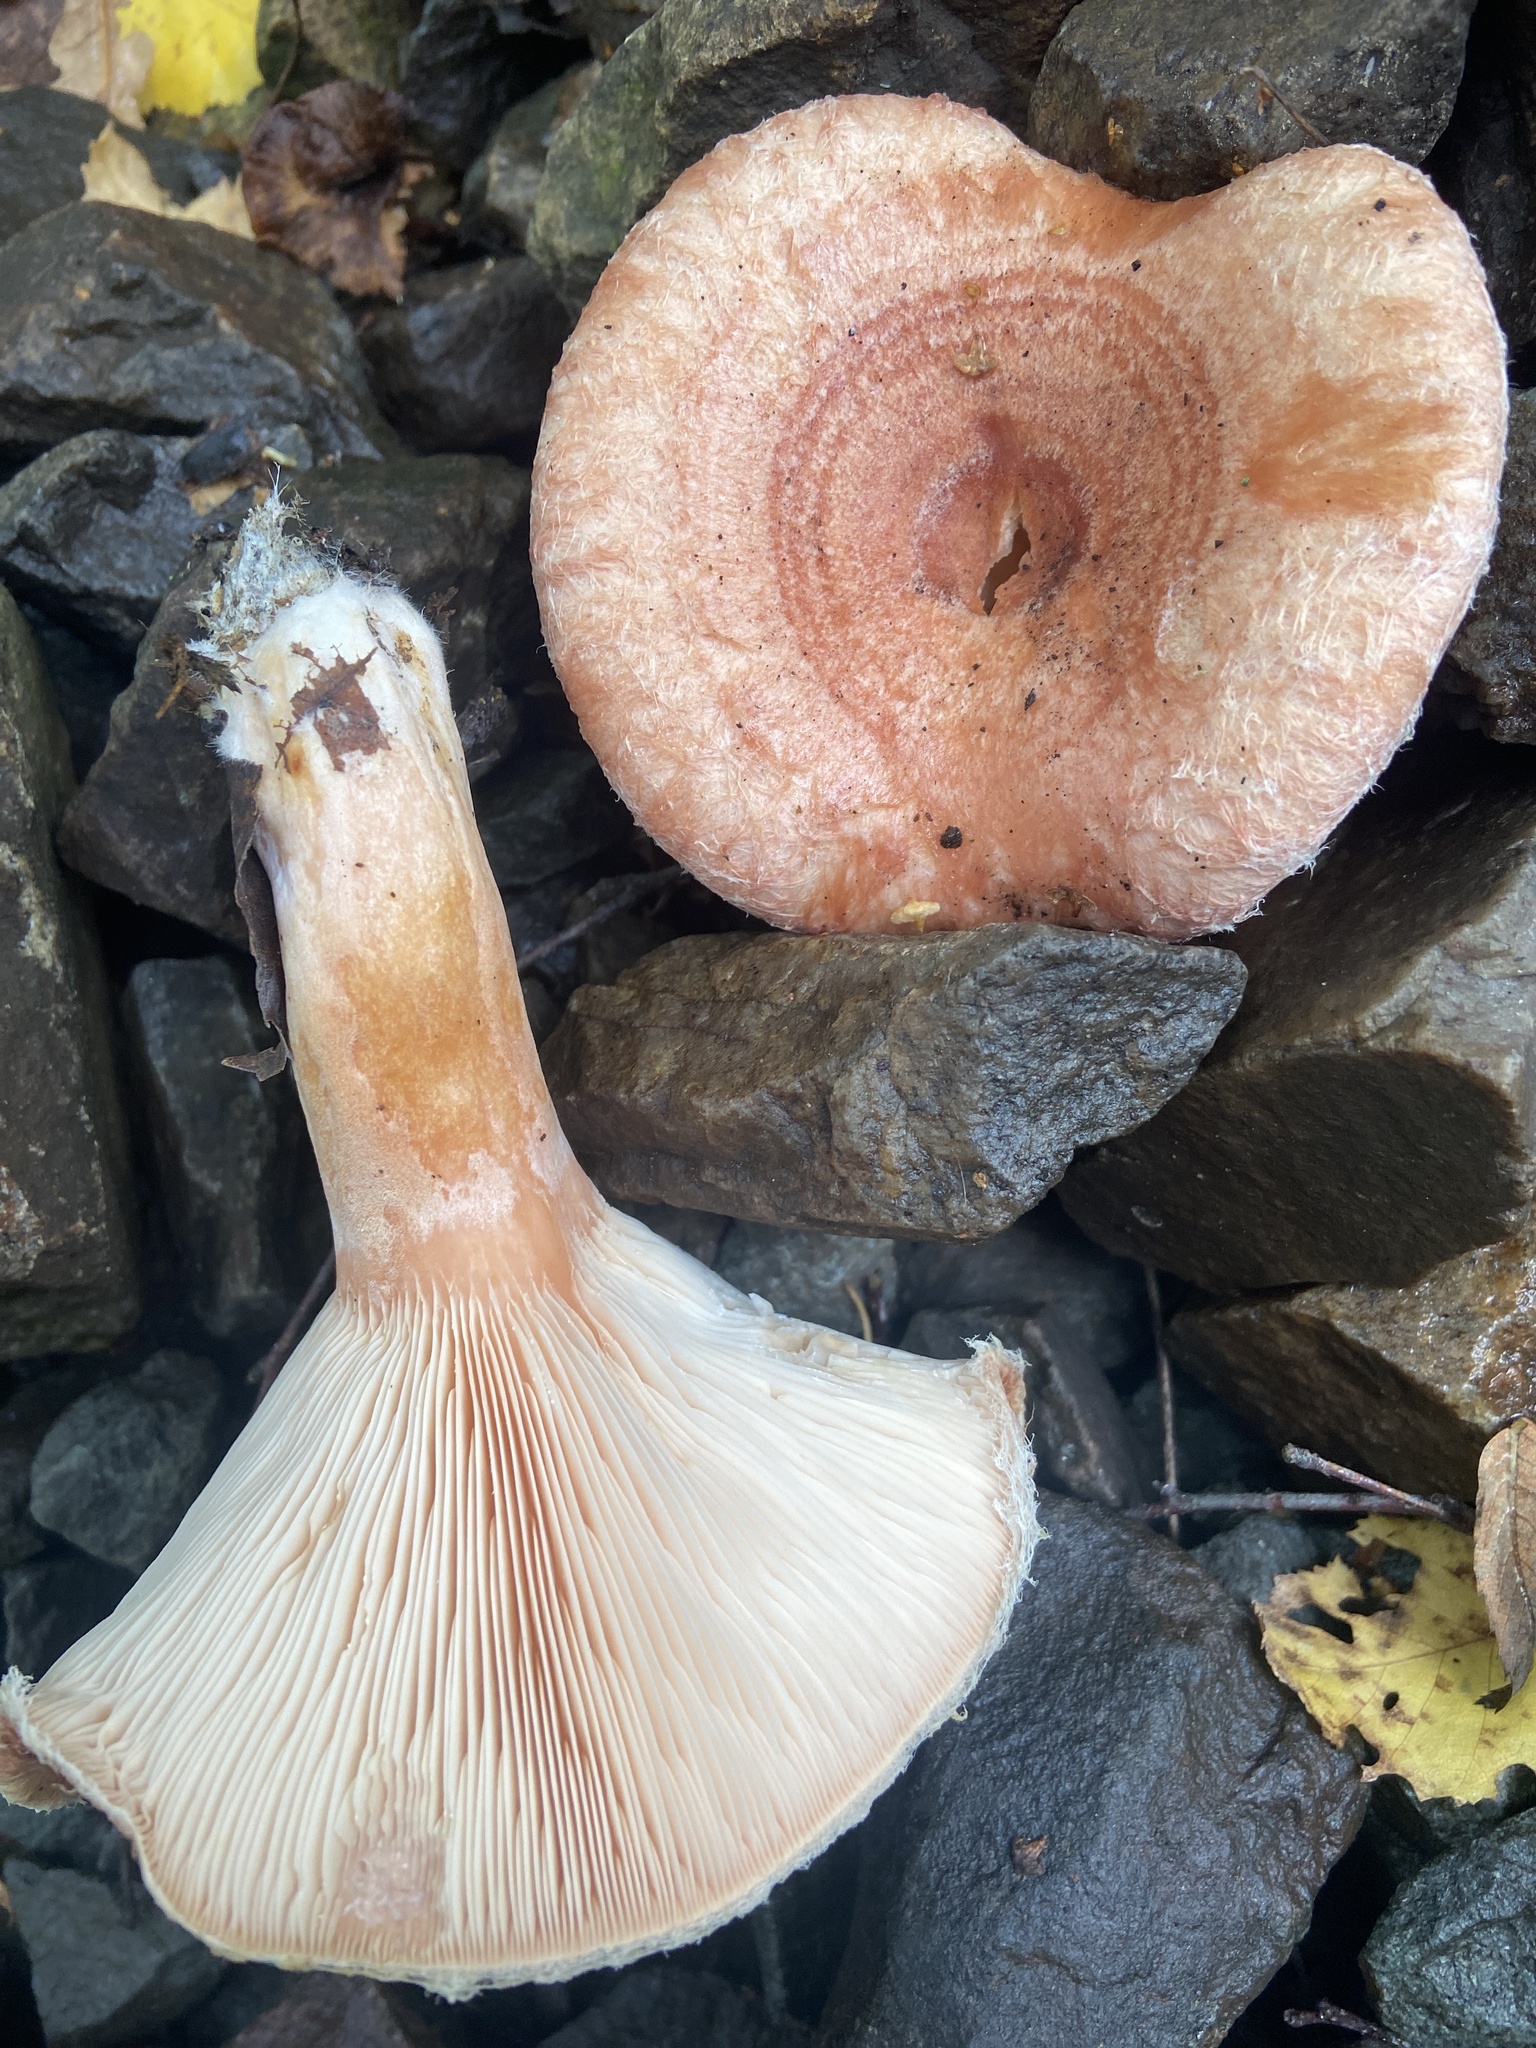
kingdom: Fungi
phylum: Basidiomycota
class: Agaricomycetes
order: Russulales
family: Russulaceae
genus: Lactarius
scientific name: Lactarius torminosus
